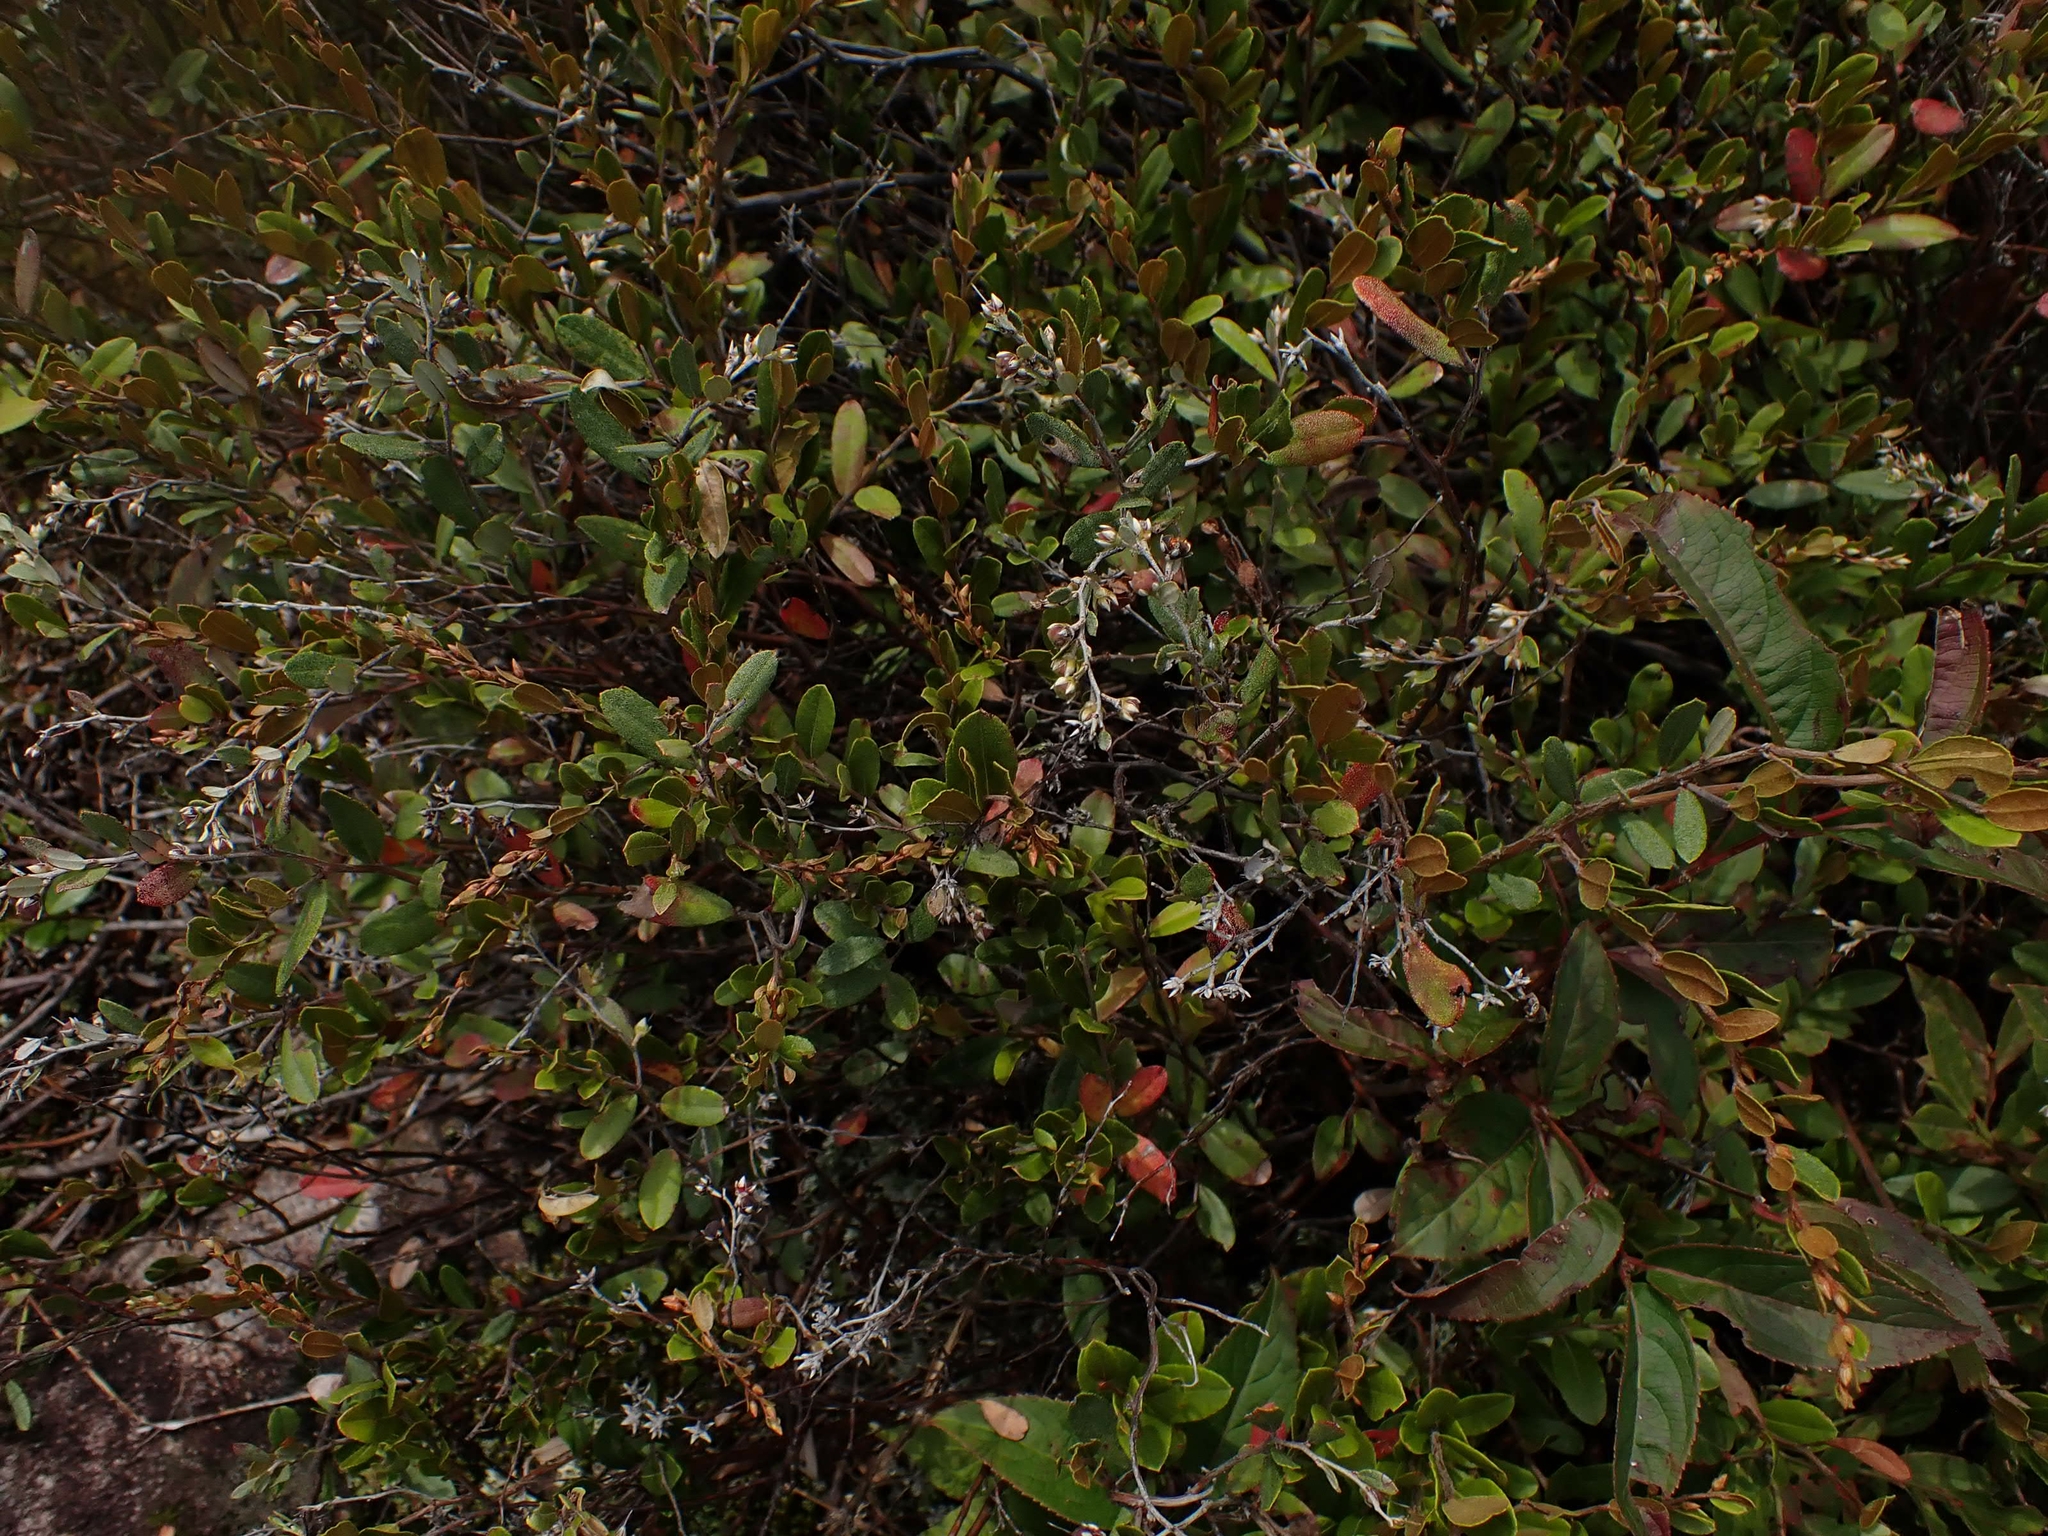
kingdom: Plantae
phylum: Tracheophyta
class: Magnoliopsida
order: Ericales
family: Ericaceae
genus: Chamaedaphne
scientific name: Chamaedaphne calyculata
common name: Leatherleaf
